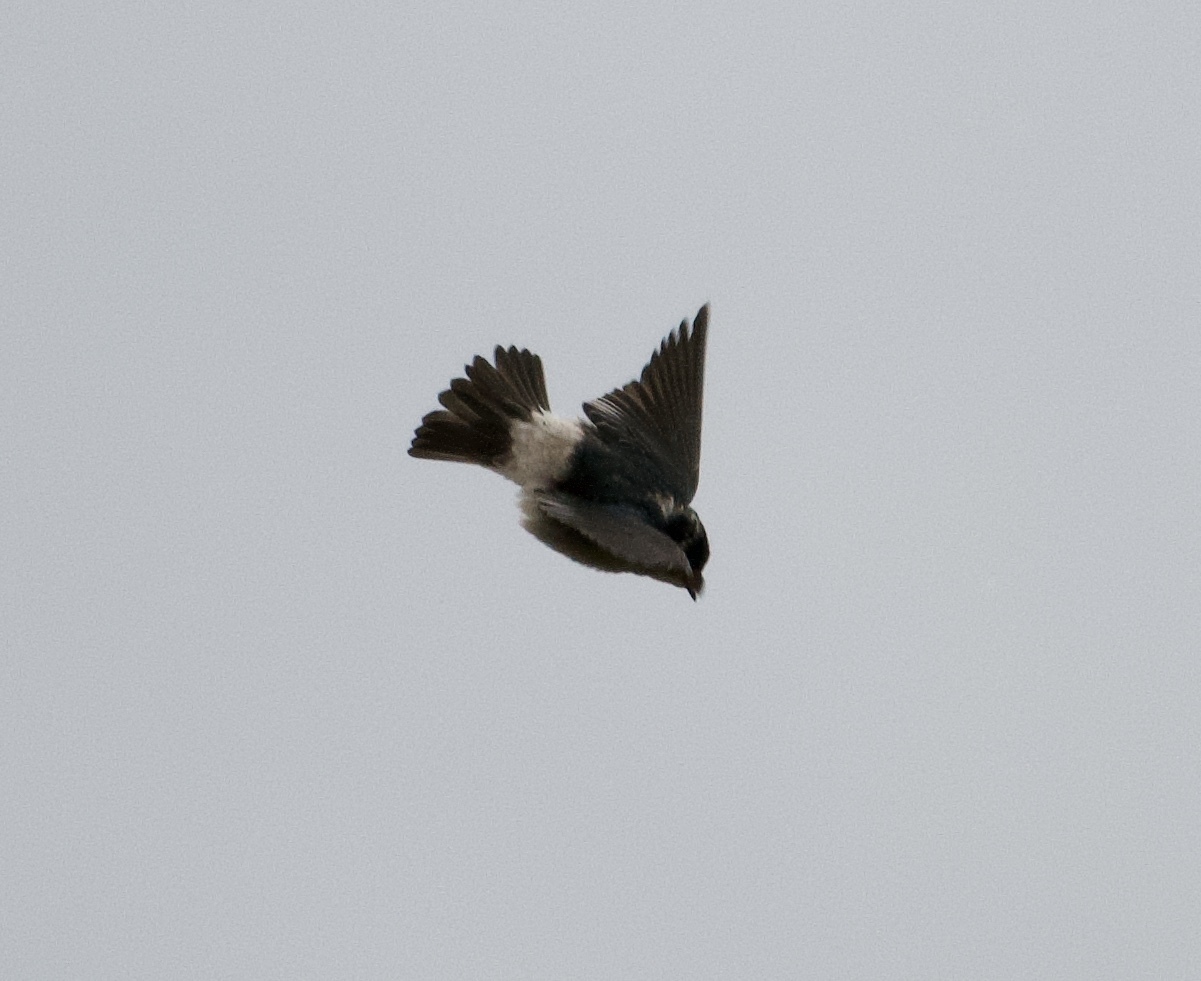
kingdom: Animalia
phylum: Chordata
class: Aves
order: Passeriformes
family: Hirundinidae
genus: Tachycineta
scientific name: Tachycineta albilinea
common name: Mangrove swallow
